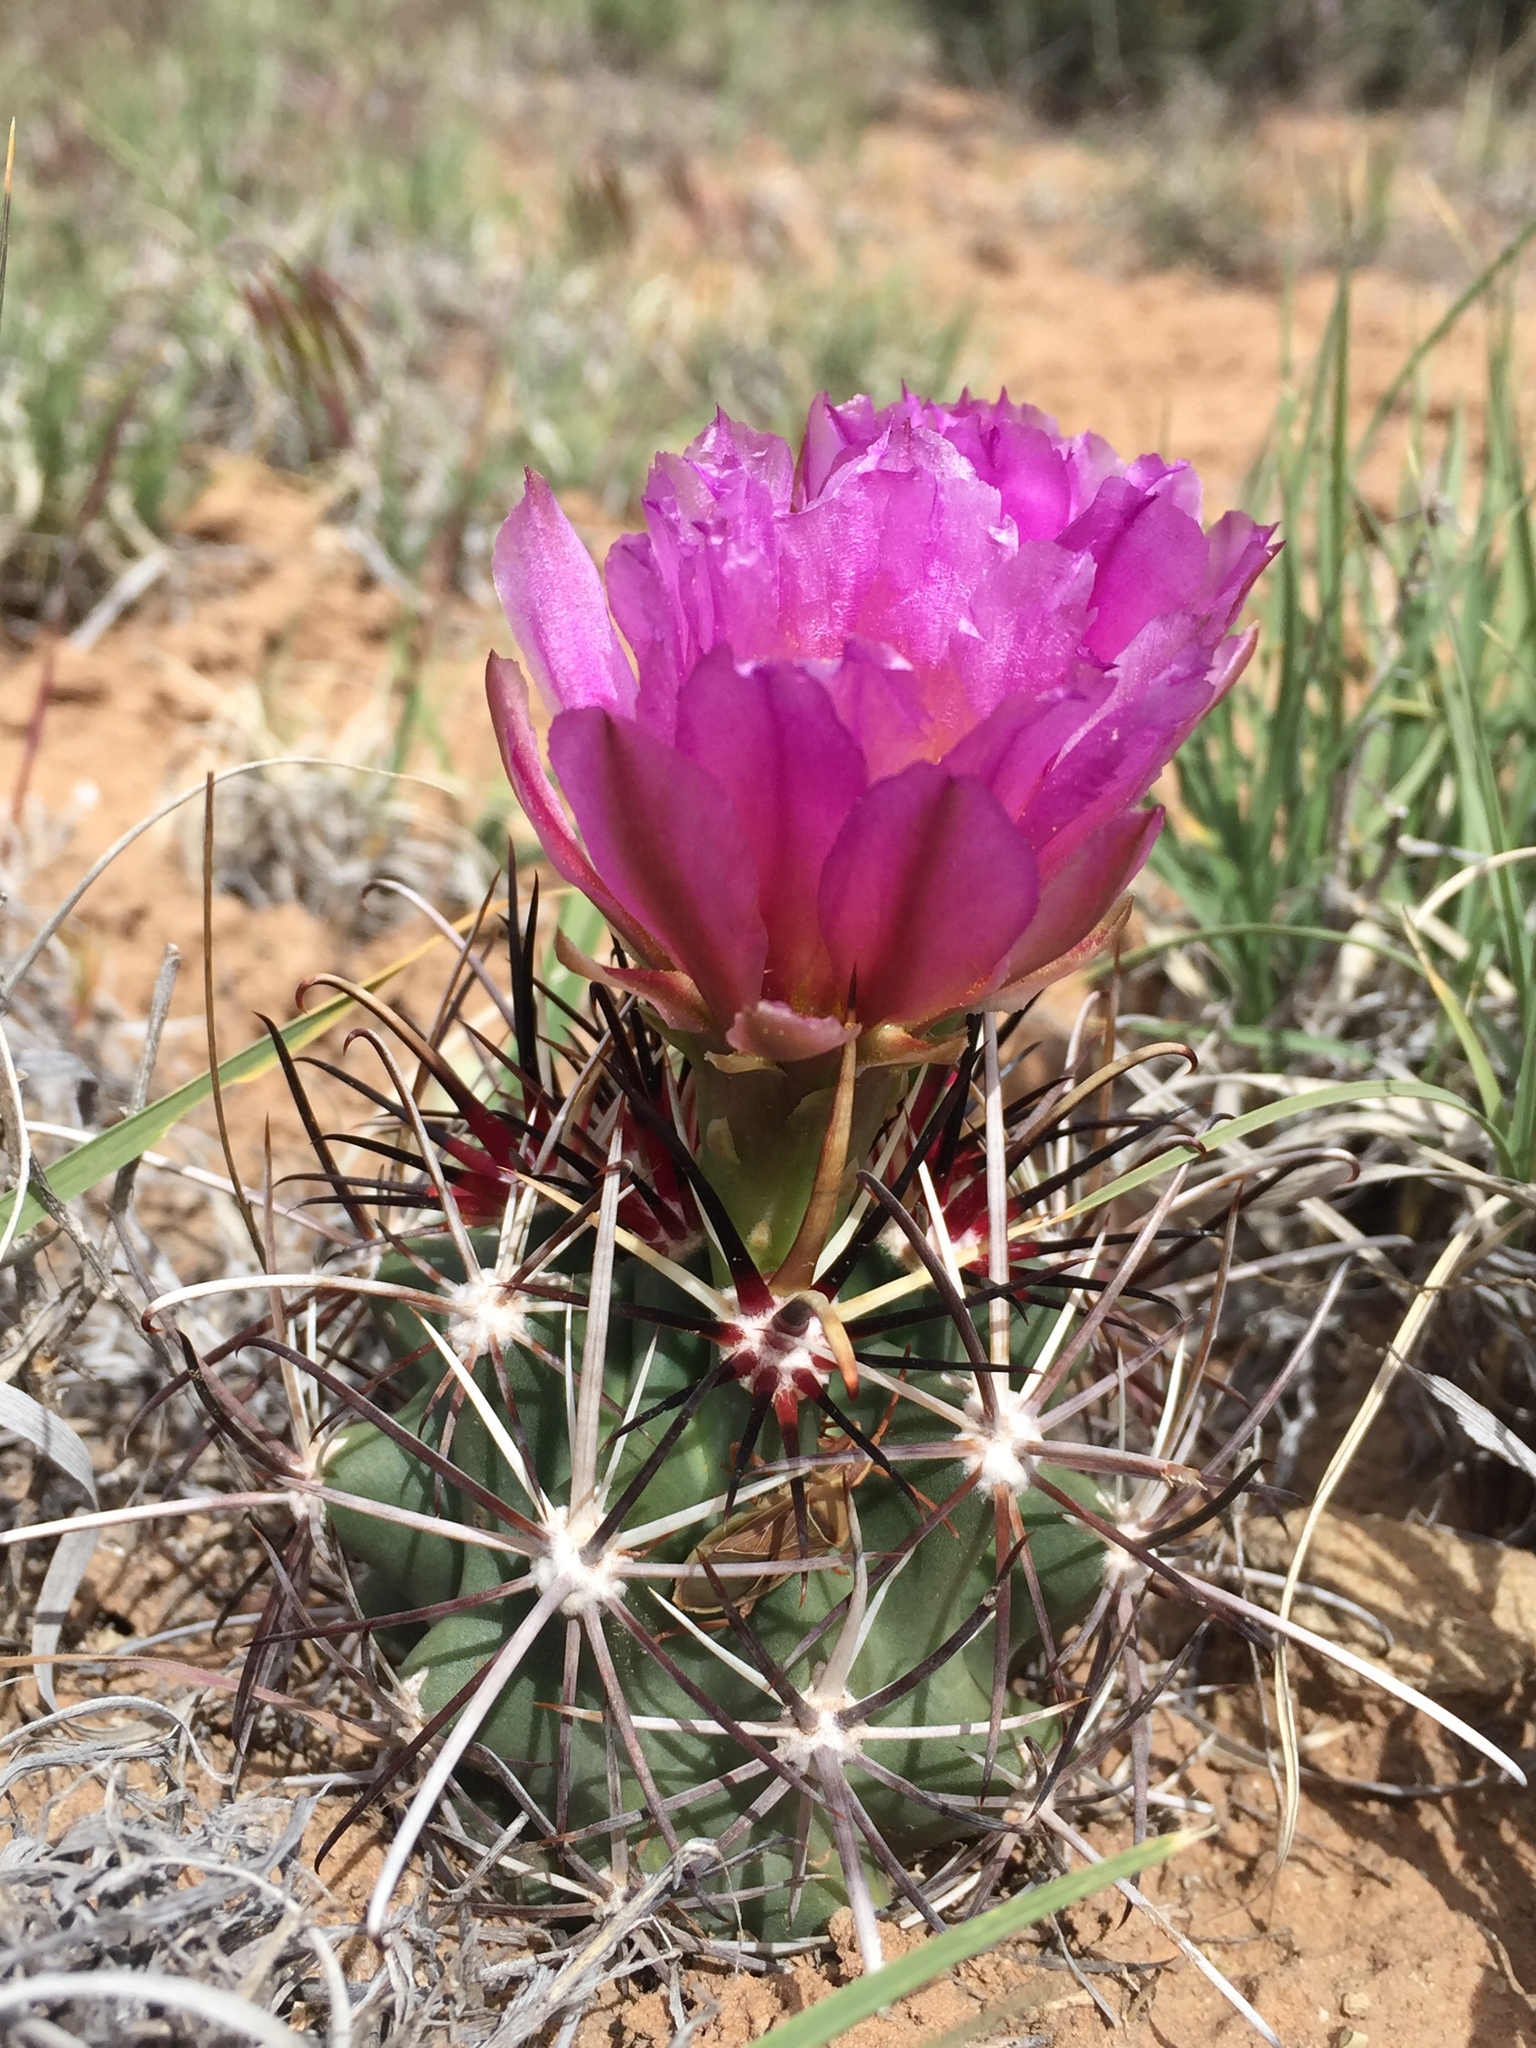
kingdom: Plantae
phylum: Tracheophyta
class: Magnoliopsida
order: Caryophyllales
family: Cactaceae
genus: Sclerocactus
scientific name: Sclerocactus parviflorus
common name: Small-flower fishhook cactus
